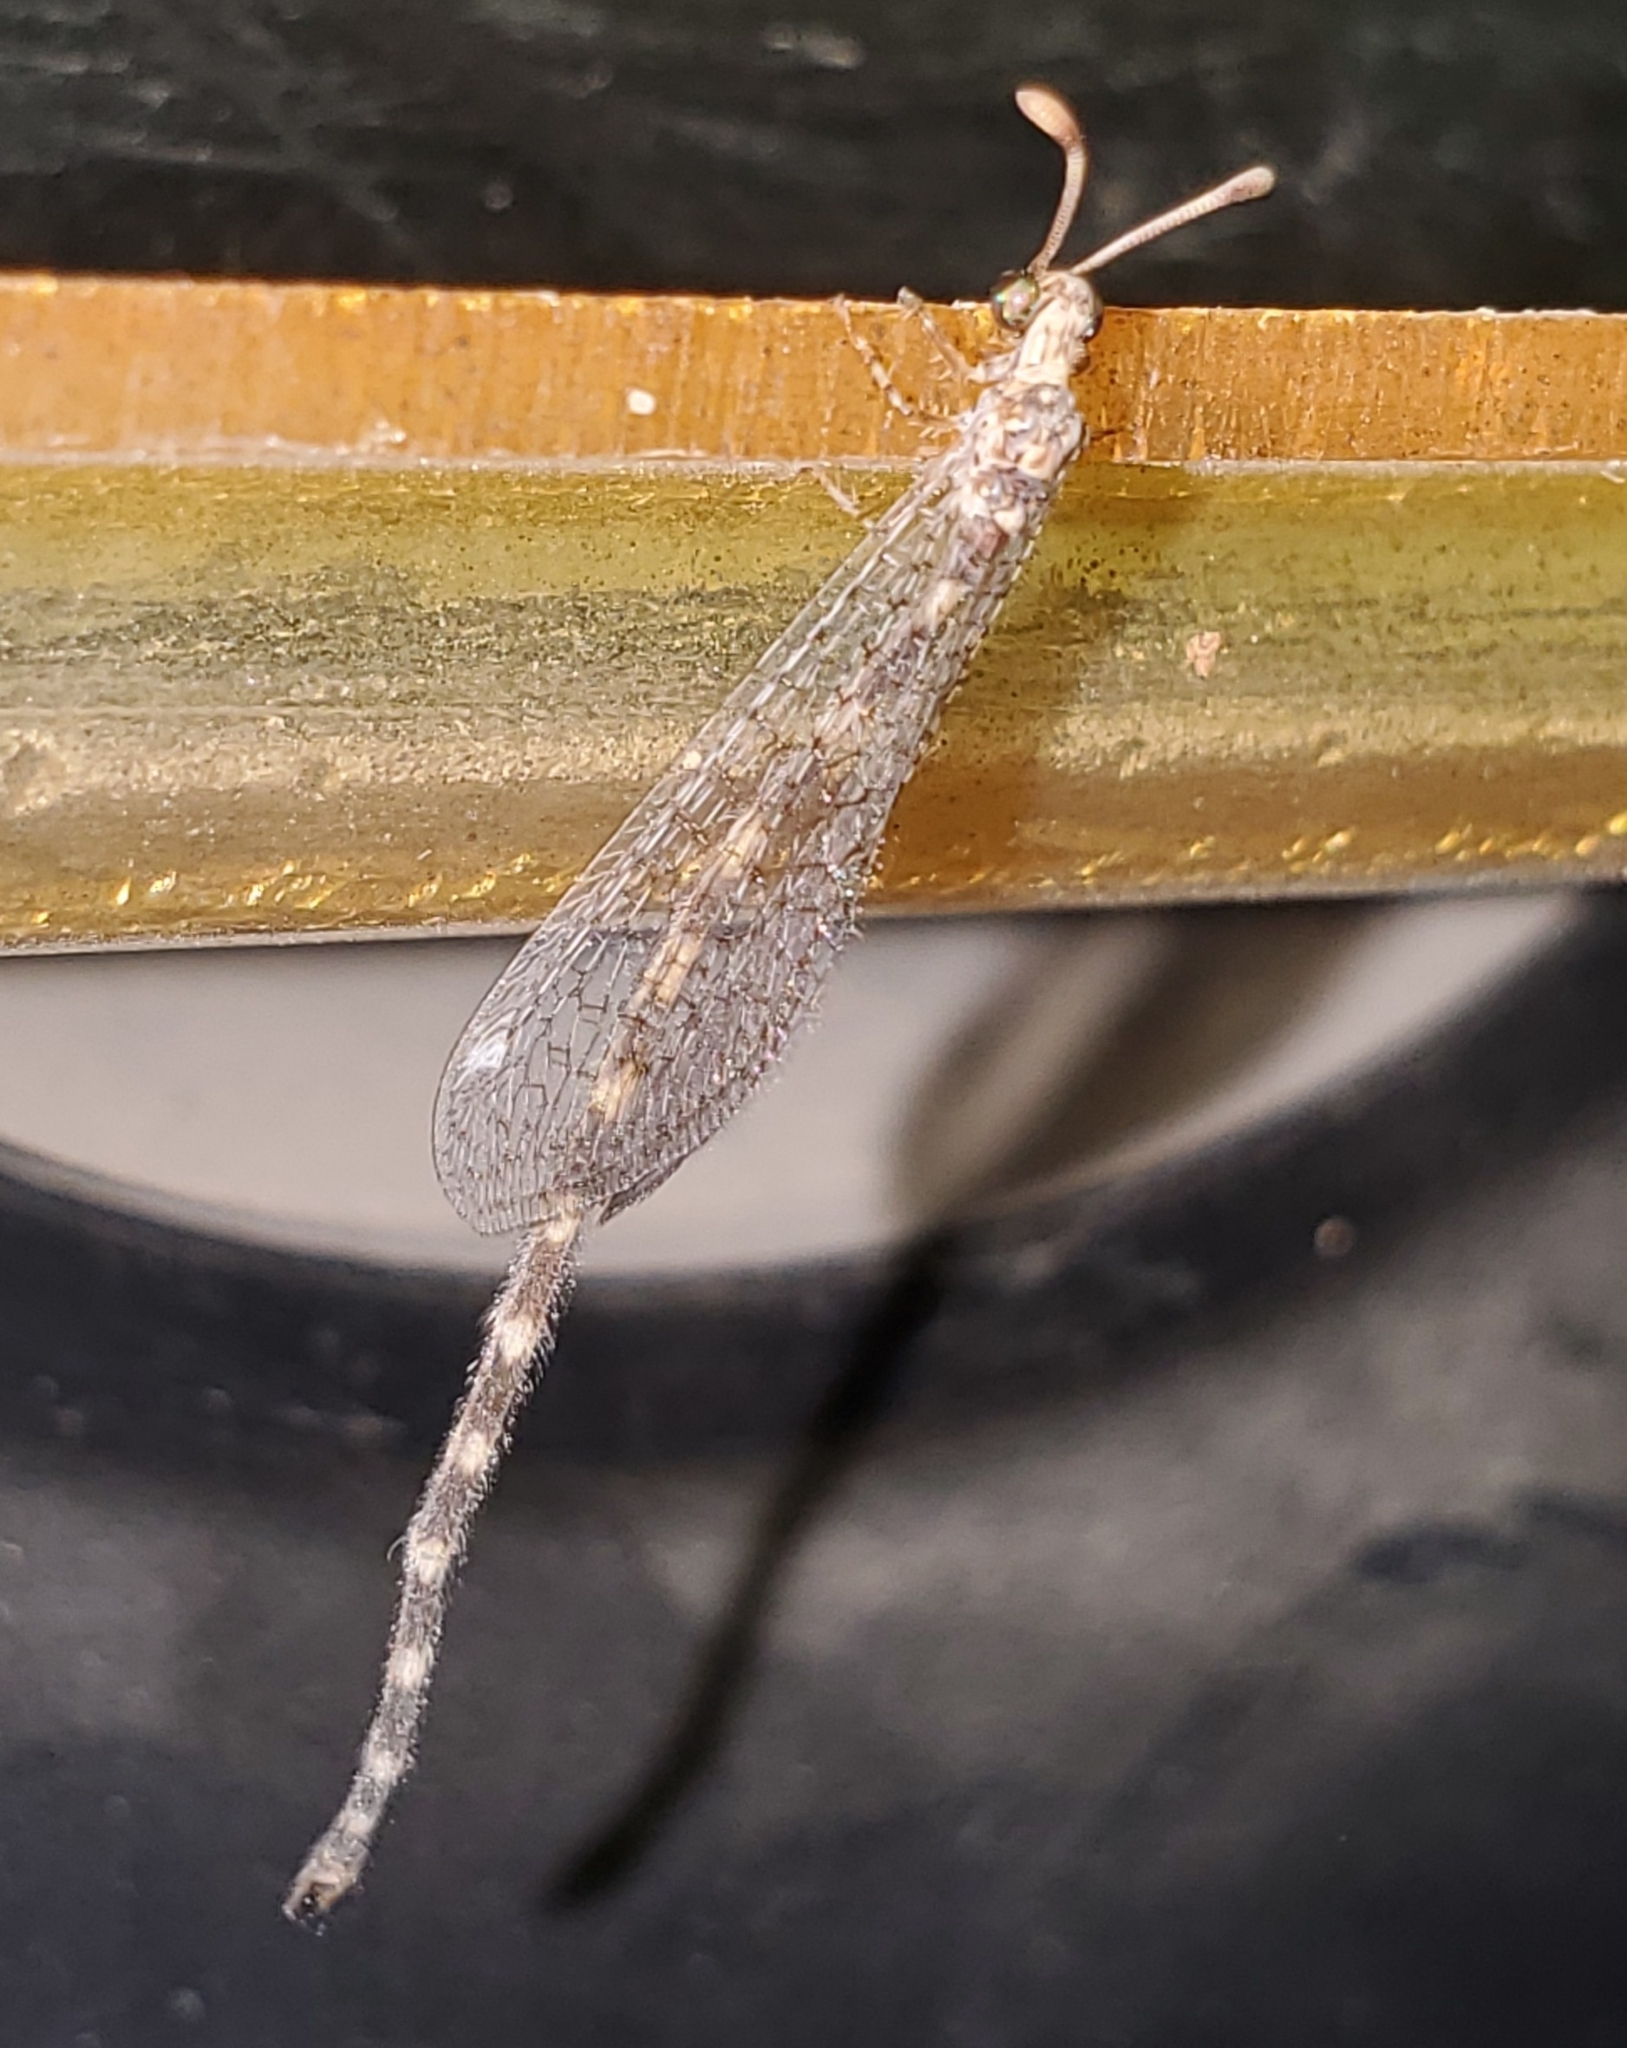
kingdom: Animalia
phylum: Arthropoda
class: Insecta
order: Neuroptera
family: Myrmeleontidae
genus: Brachynemurus
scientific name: Brachynemurus sackeni
